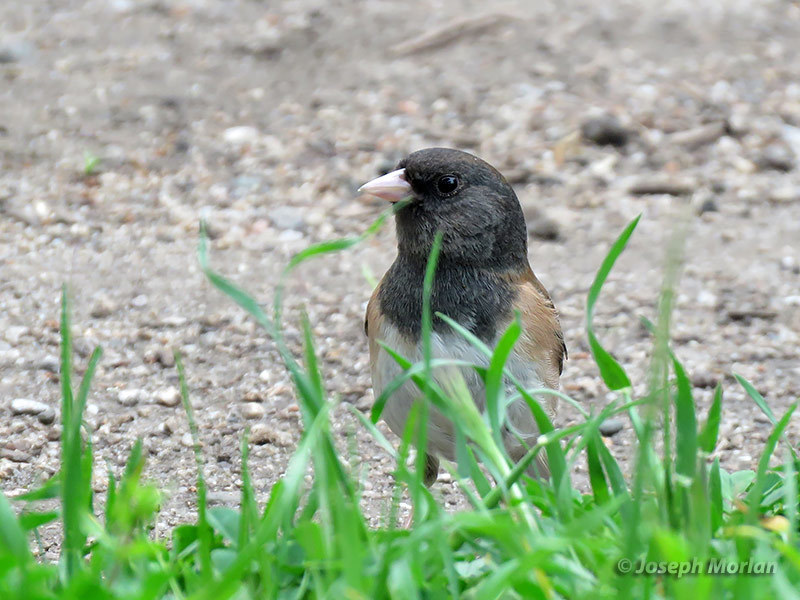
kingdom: Animalia
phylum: Chordata
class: Aves
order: Passeriformes
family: Passerellidae
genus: Junco
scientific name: Junco hyemalis
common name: Dark-eyed junco
